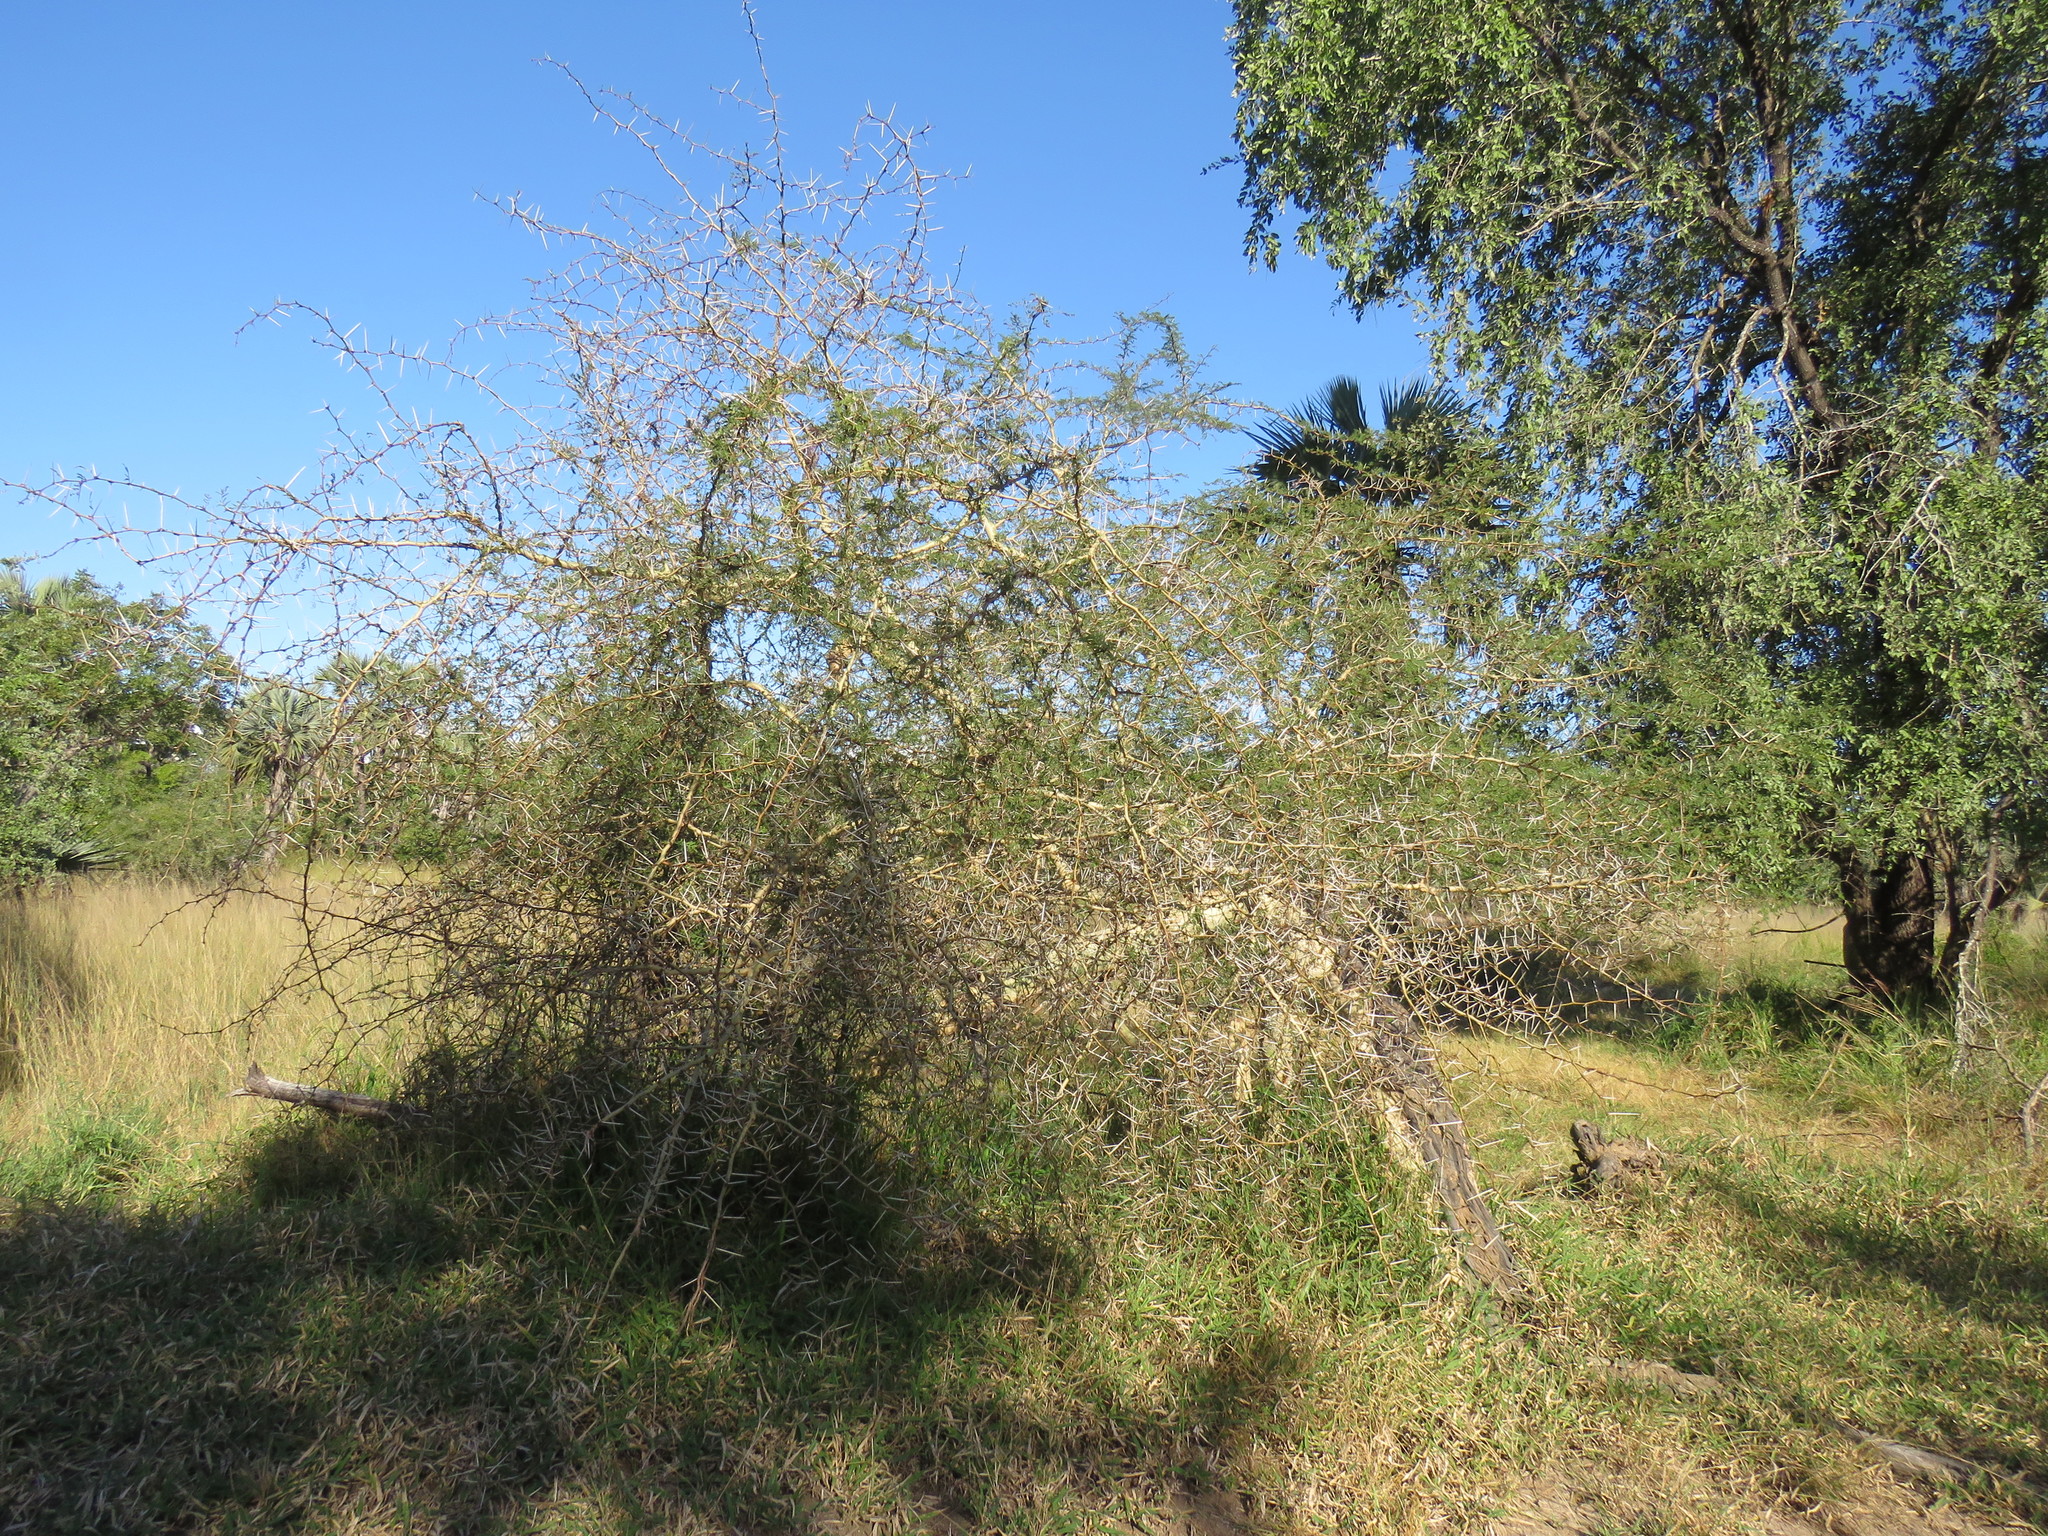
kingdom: Plantae
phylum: Tracheophyta
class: Magnoliopsida
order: Fabales
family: Fabaceae
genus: Vachellia
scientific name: Vachellia xanthophloea
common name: Fever tree
